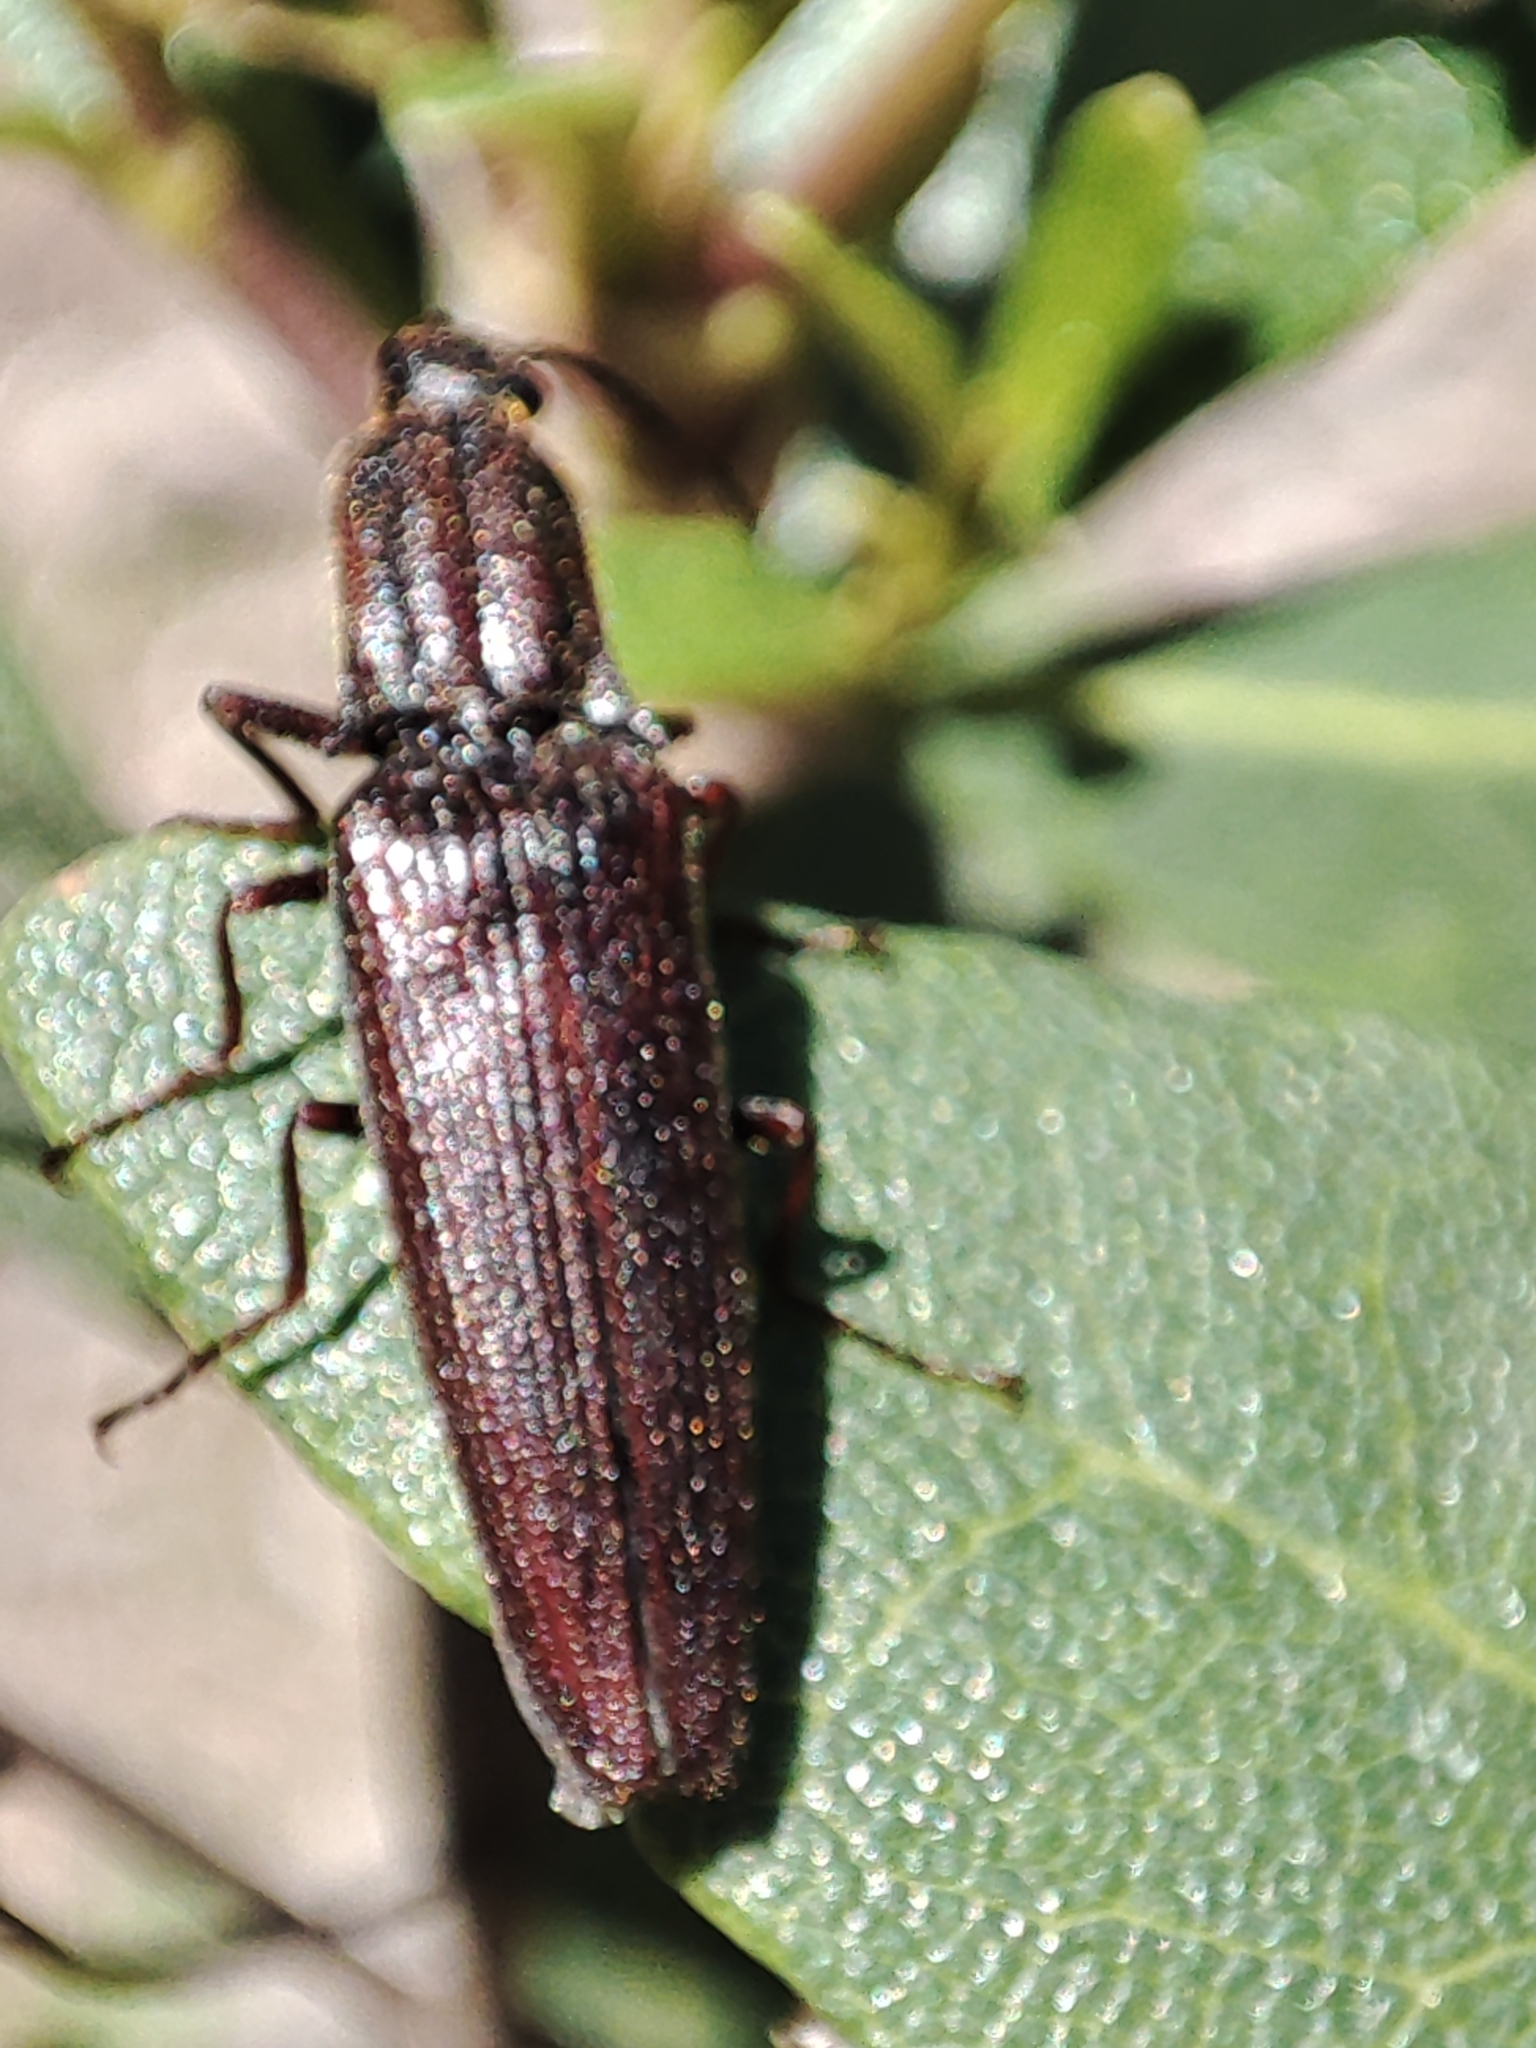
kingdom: Animalia
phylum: Arthropoda
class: Insecta
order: Coleoptera
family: Elateridae
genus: Elatichrosis
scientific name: Elatichrosis
